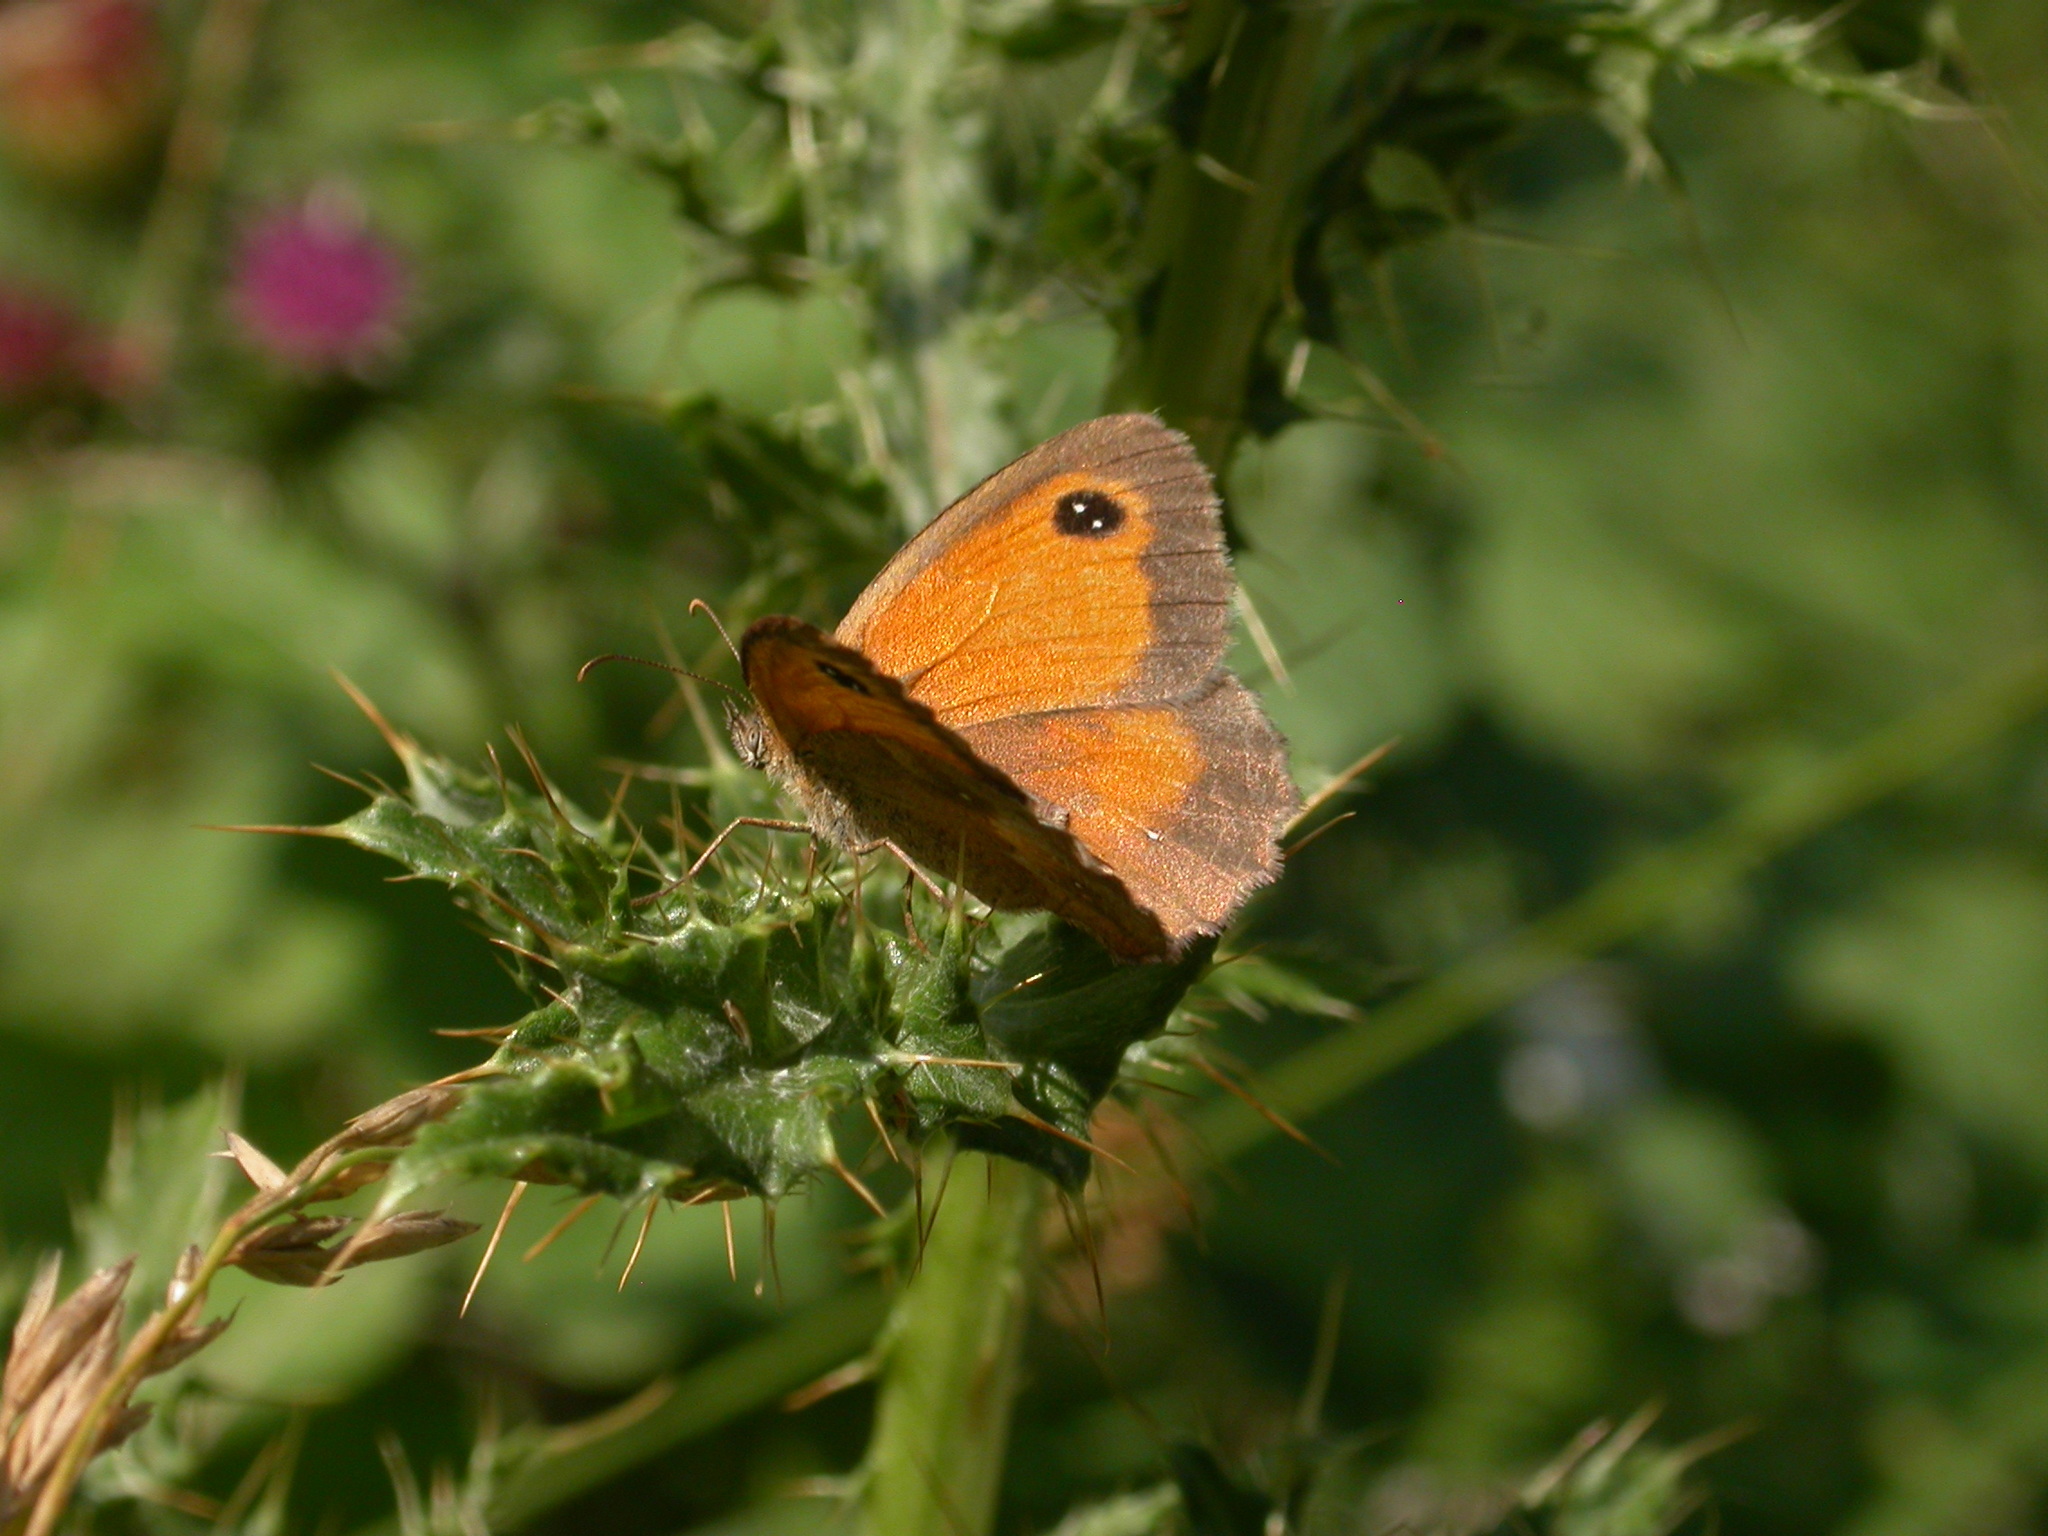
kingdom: Animalia
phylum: Arthropoda
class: Insecta
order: Lepidoptera
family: Nymphalidae
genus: Pyronia
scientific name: Pyronia tithonus
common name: Gatekeeper
